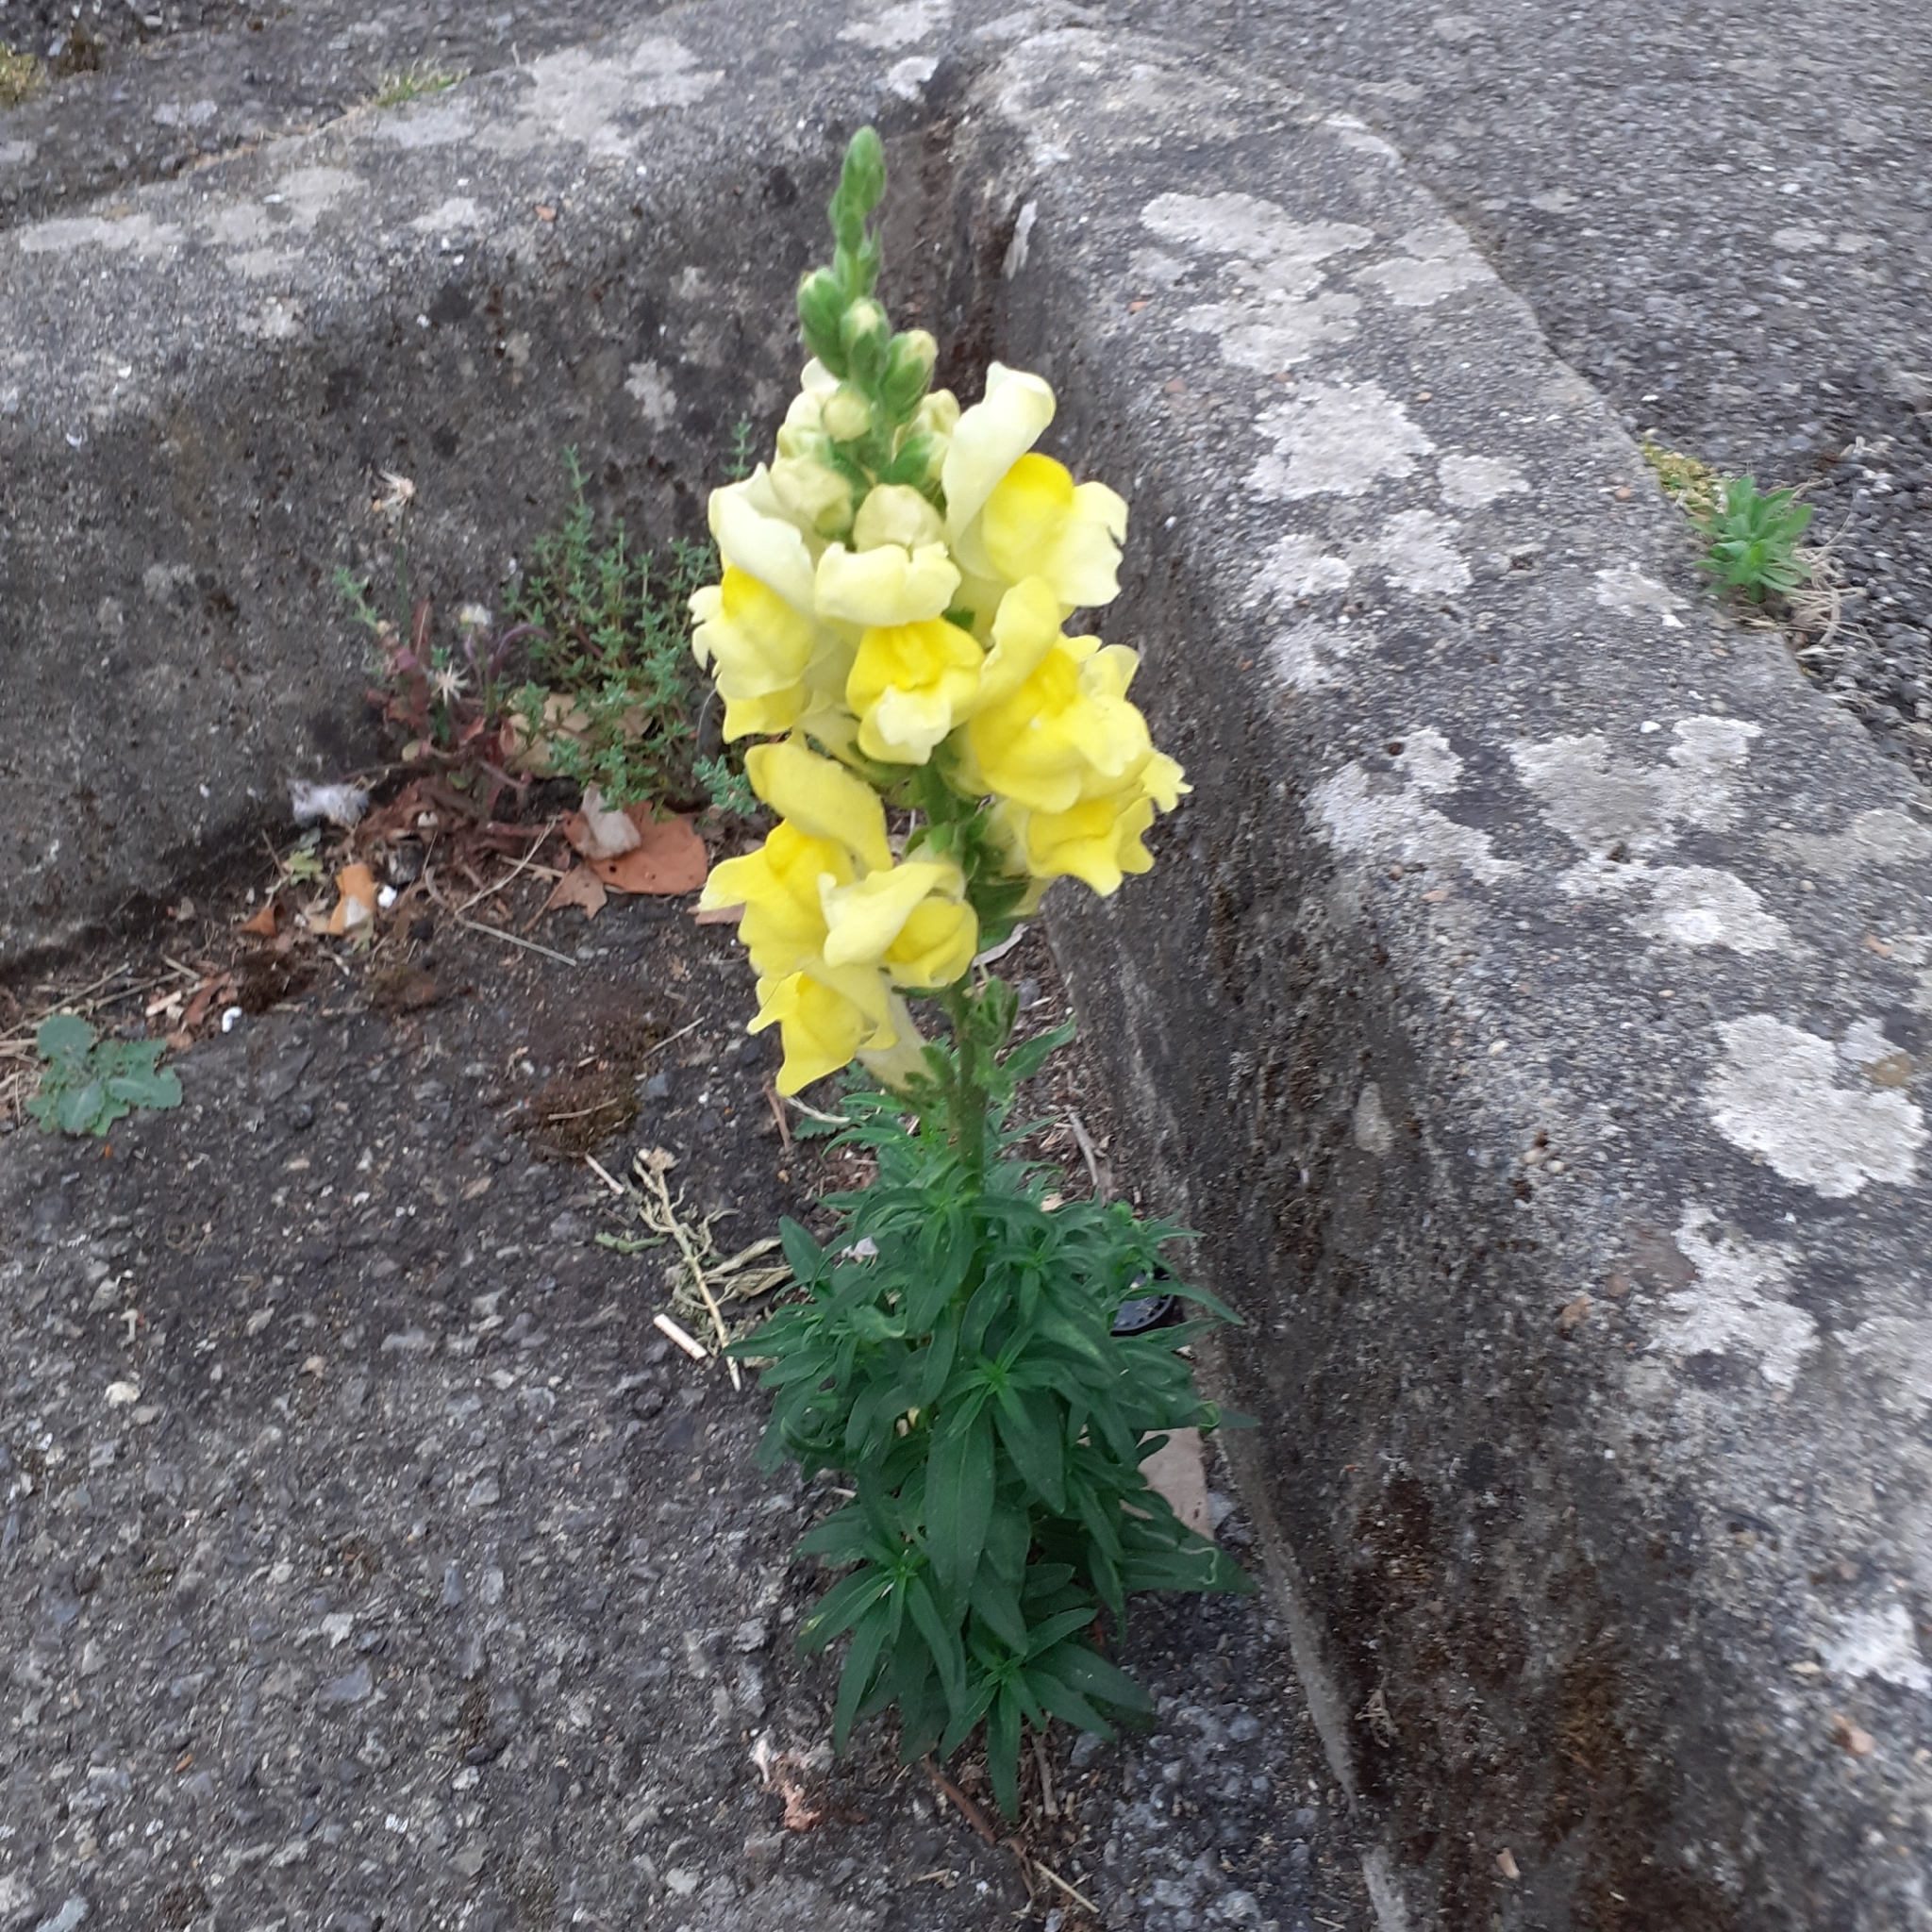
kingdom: Plantae
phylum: Tracheophyta
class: Magnoliopsida
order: Lamiales
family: Plantaginaceae
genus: Linaria
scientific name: Linaria vulgaris
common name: Butter and eggs
